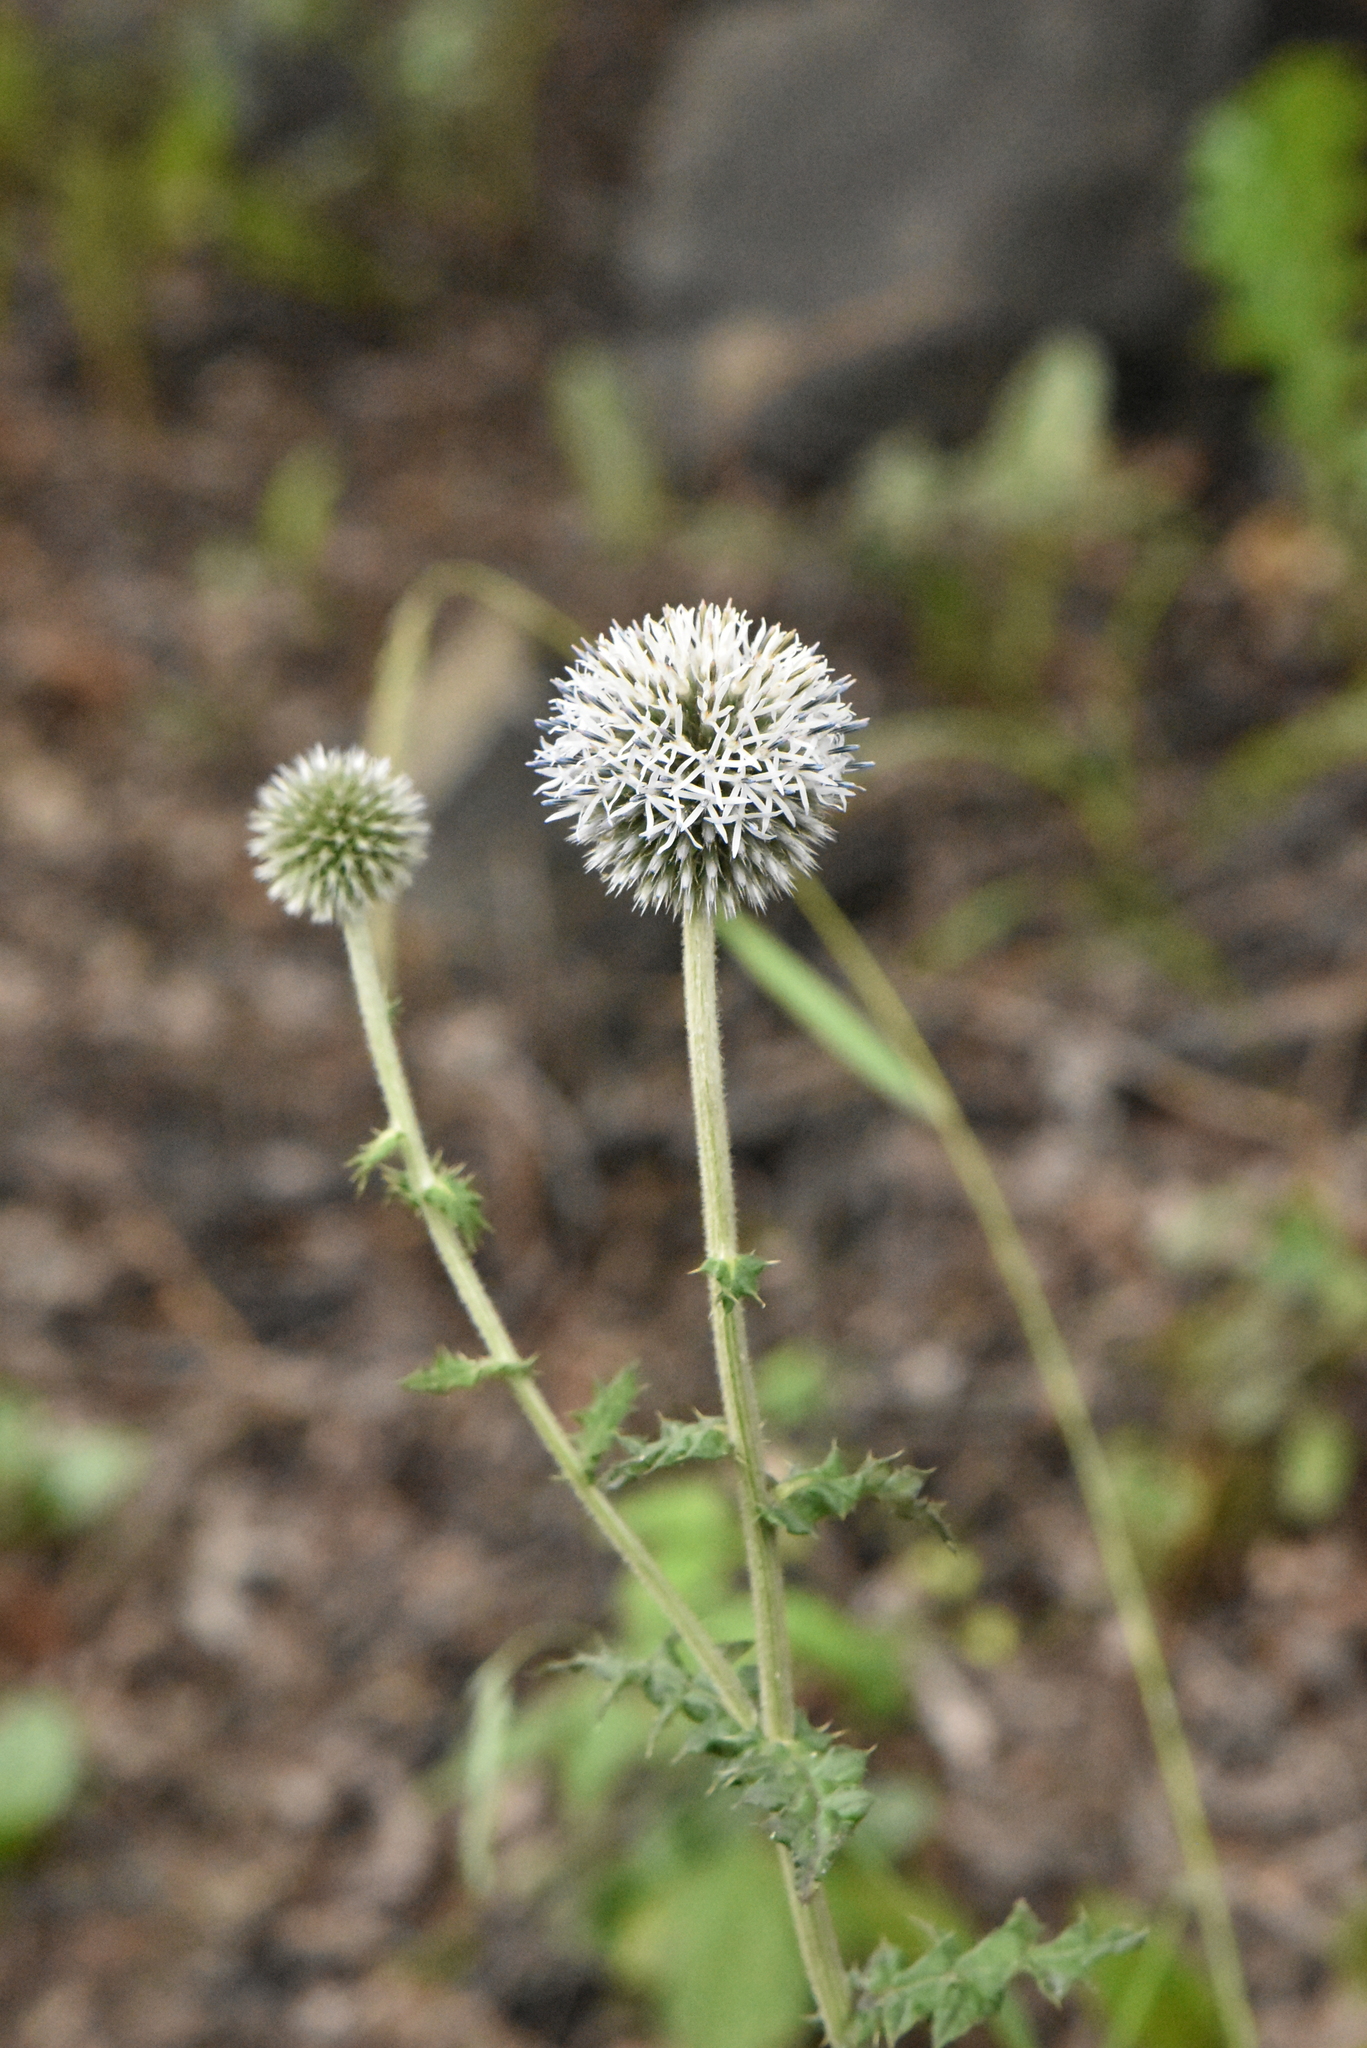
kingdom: Plantae
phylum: Tracheophyta
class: Magnoliopsida
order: Asterales
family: Asteraceae
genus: Echinops
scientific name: Echinops sphaerocephalus
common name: Glandular globe-thistle
